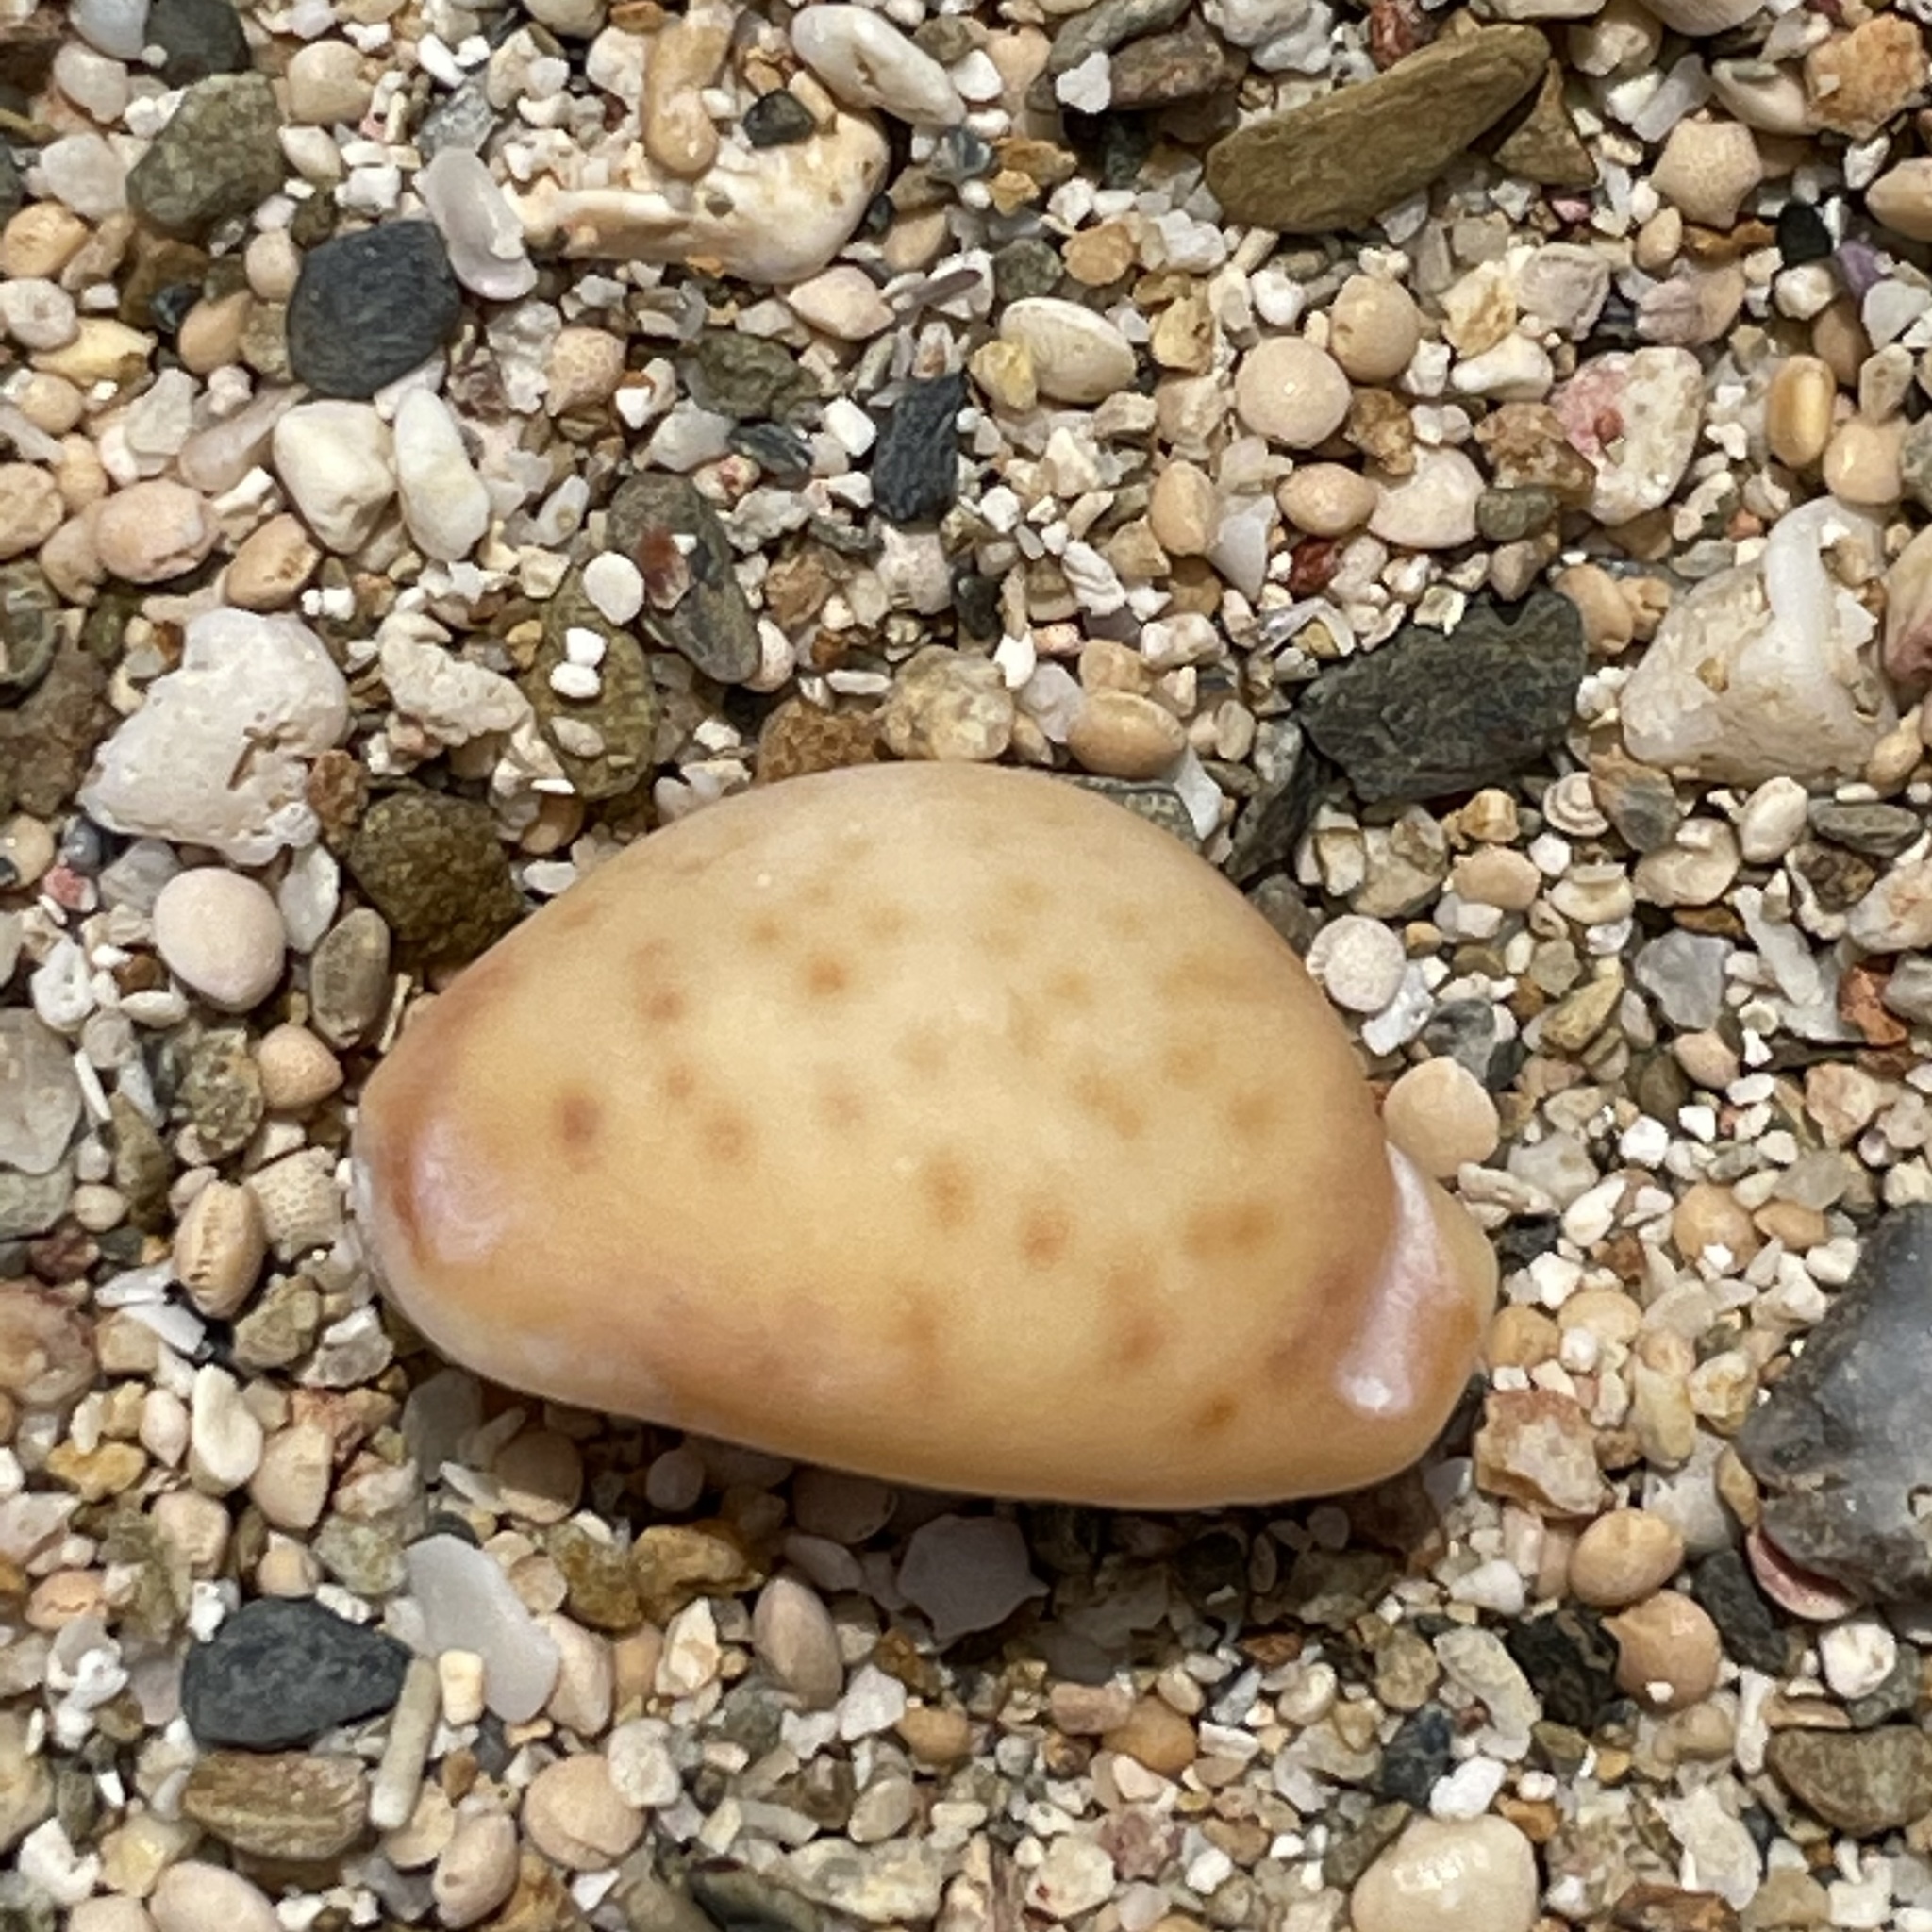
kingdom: Animalia
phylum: Mollusca
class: Gastropoda
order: Littorinimorpha
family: Cypraeidae
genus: Pustularia
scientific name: Pustularia bistrinotata
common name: Treblespotted cowrie
